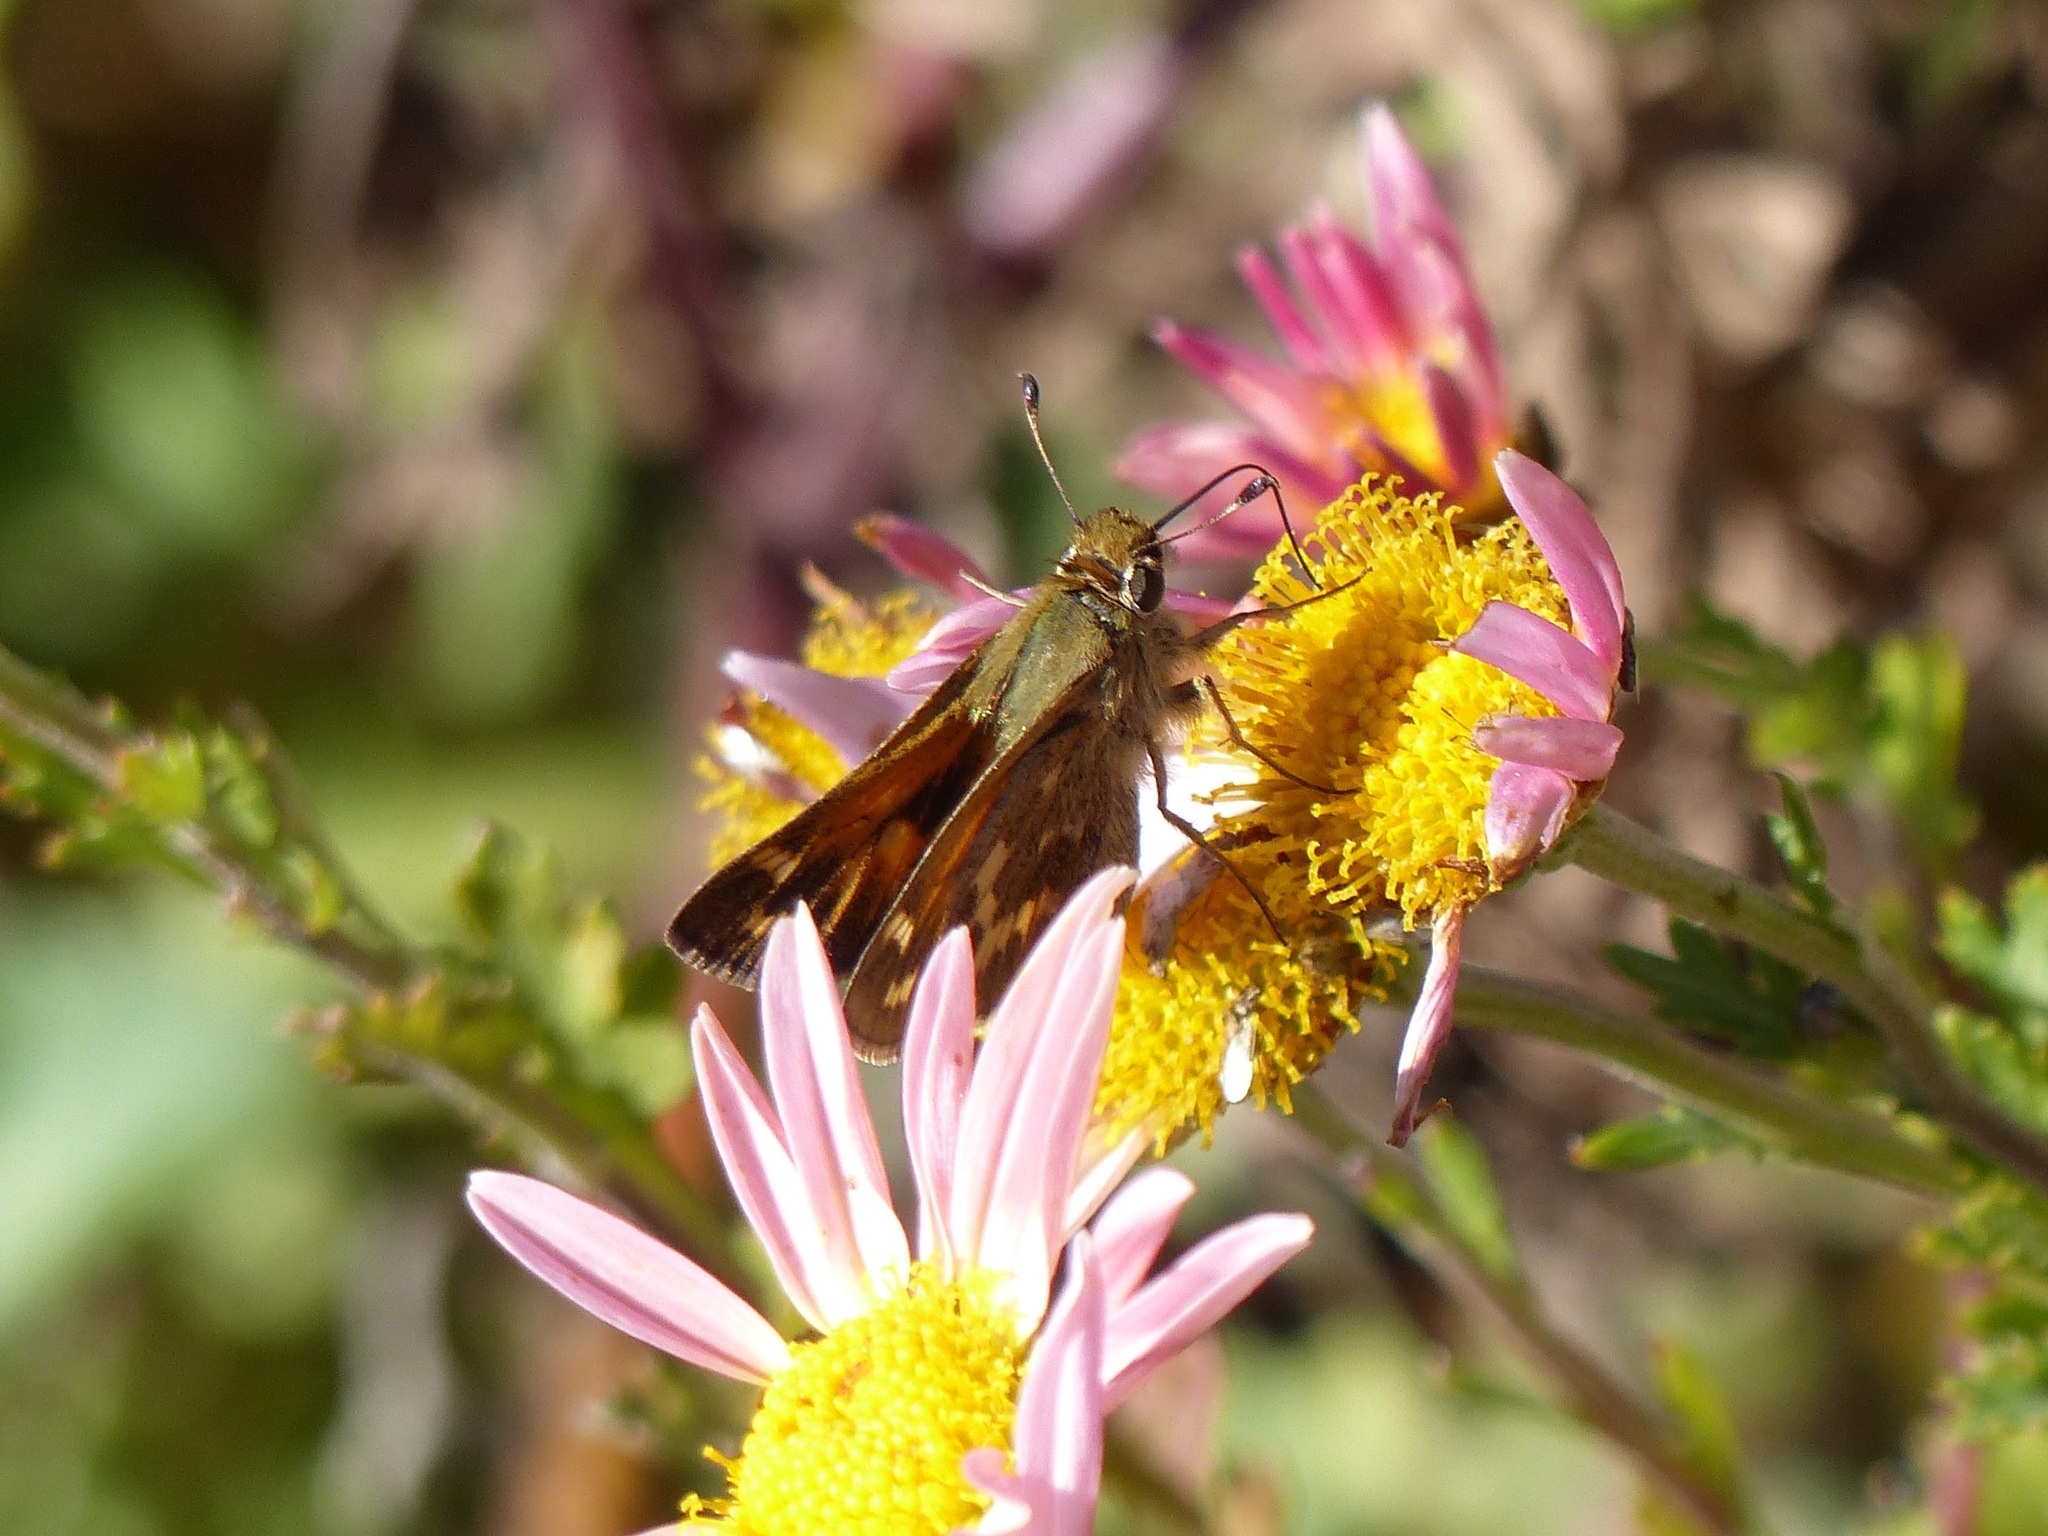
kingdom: Animalia
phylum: Arthropoda
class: Insecta
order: Lepidoptera
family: Hesperiidae
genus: Atalopedes
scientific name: Atalopedes campestris
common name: Sachem
